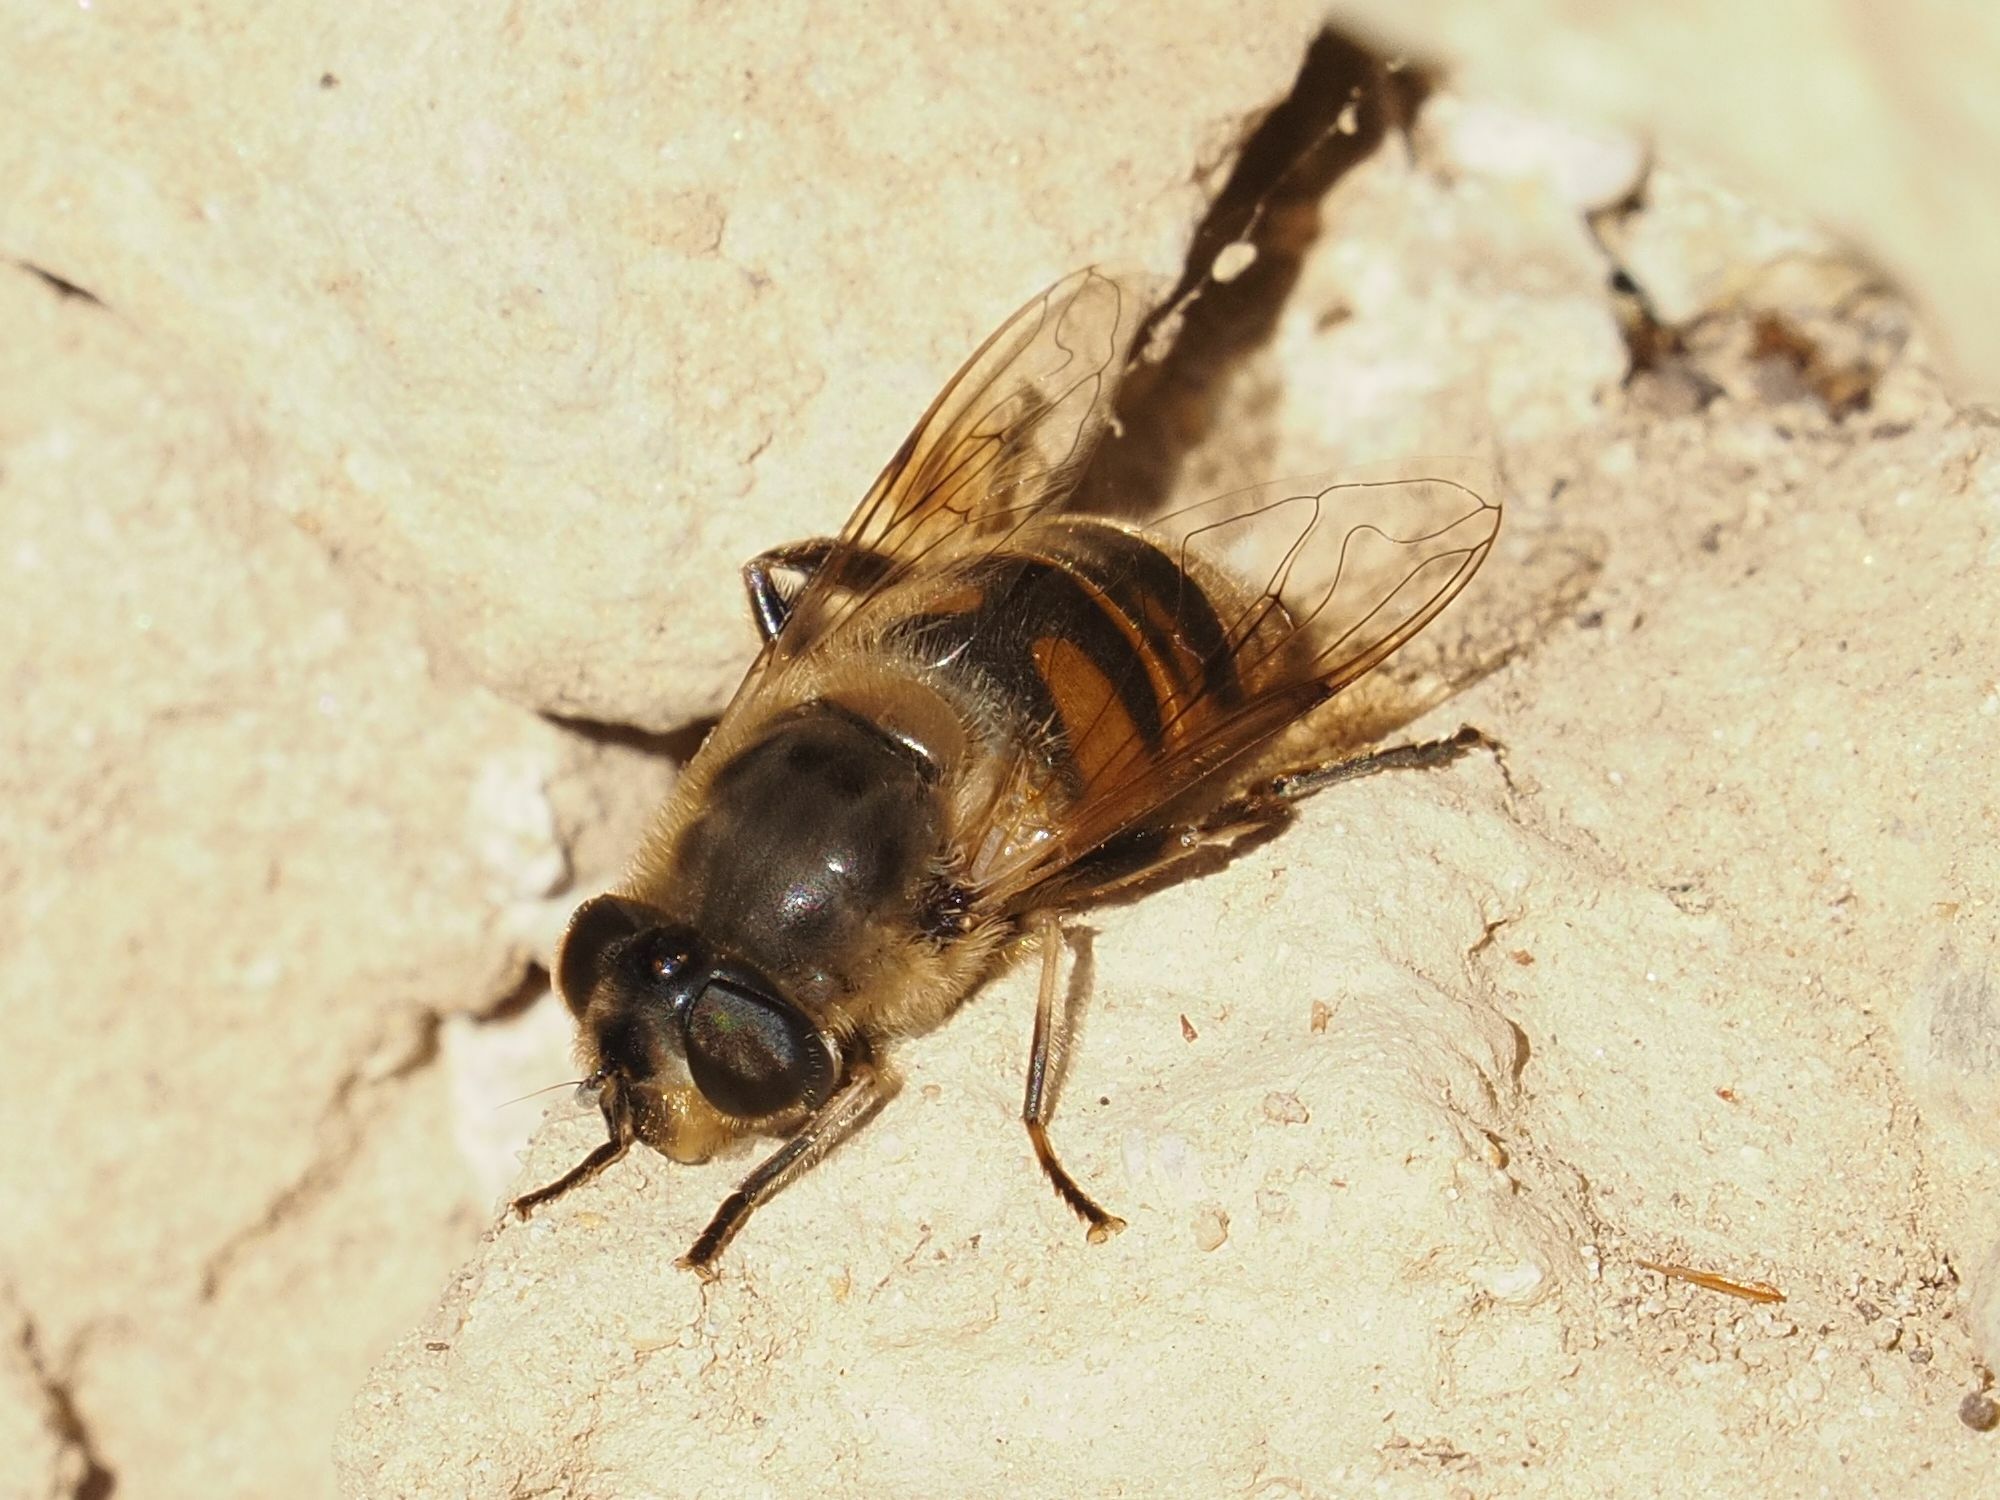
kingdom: Animalia
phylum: Arthropoda
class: Insecta
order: Diptera
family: Syrphidae
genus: Eristalis
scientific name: Eristalis tenax
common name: Drone fly
